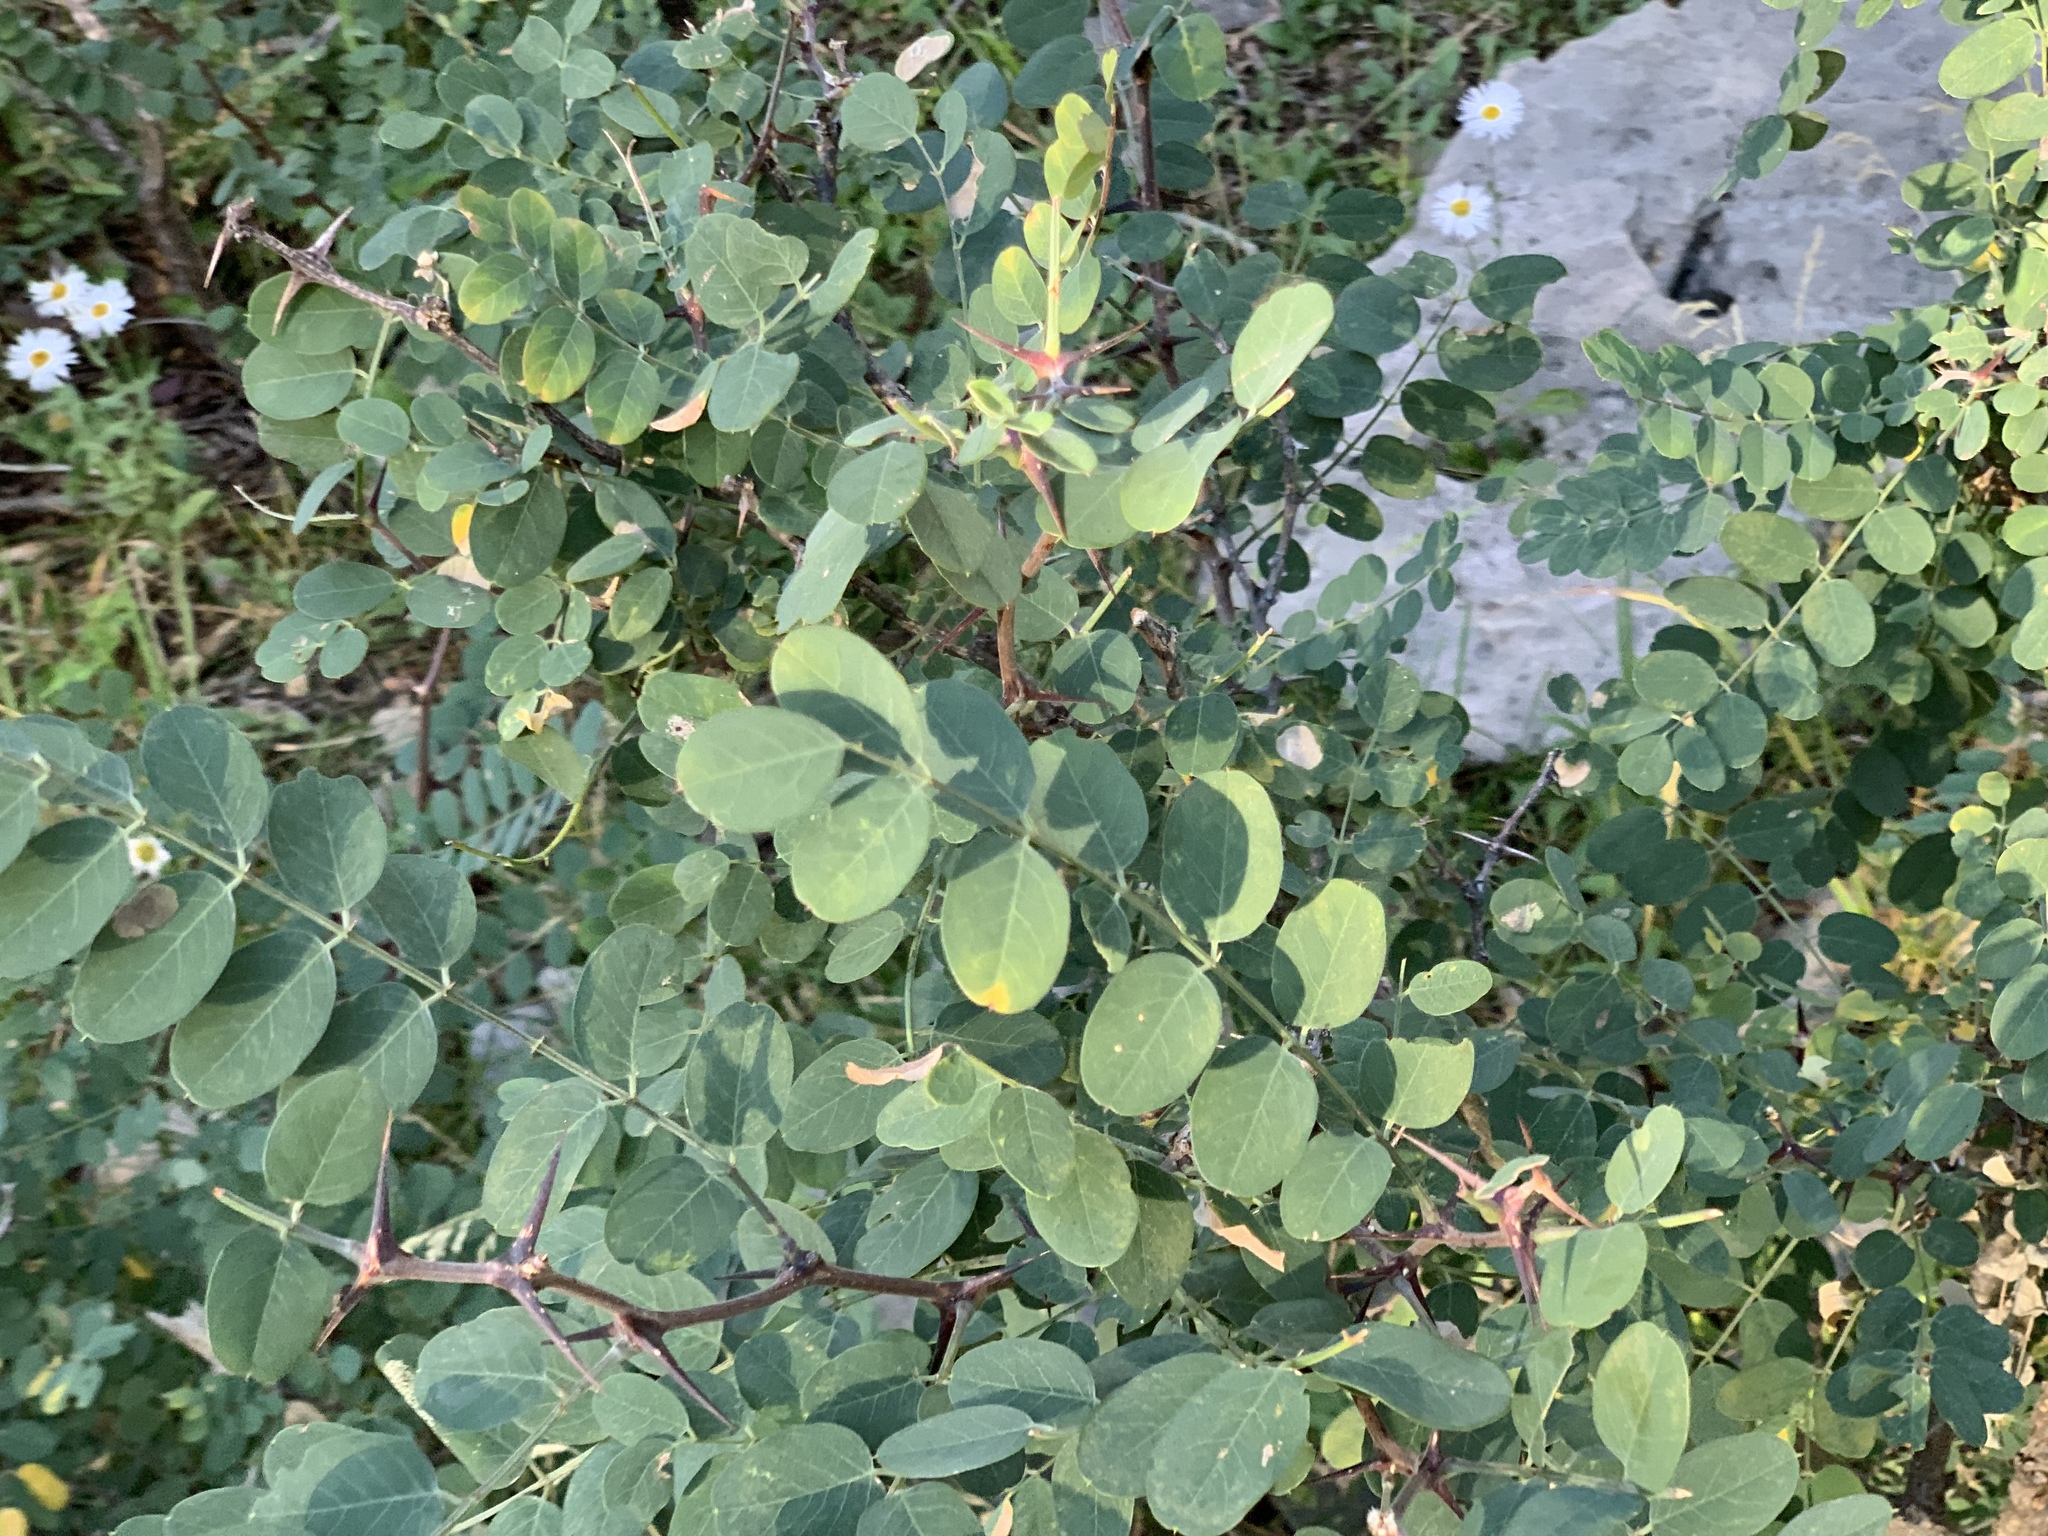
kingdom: Plantae
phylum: Tracheophyta
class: Magnoliopsida
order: Fabales
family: Fabaceae
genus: Robinia
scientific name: Robinia neomexicana
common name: New mexico locust
